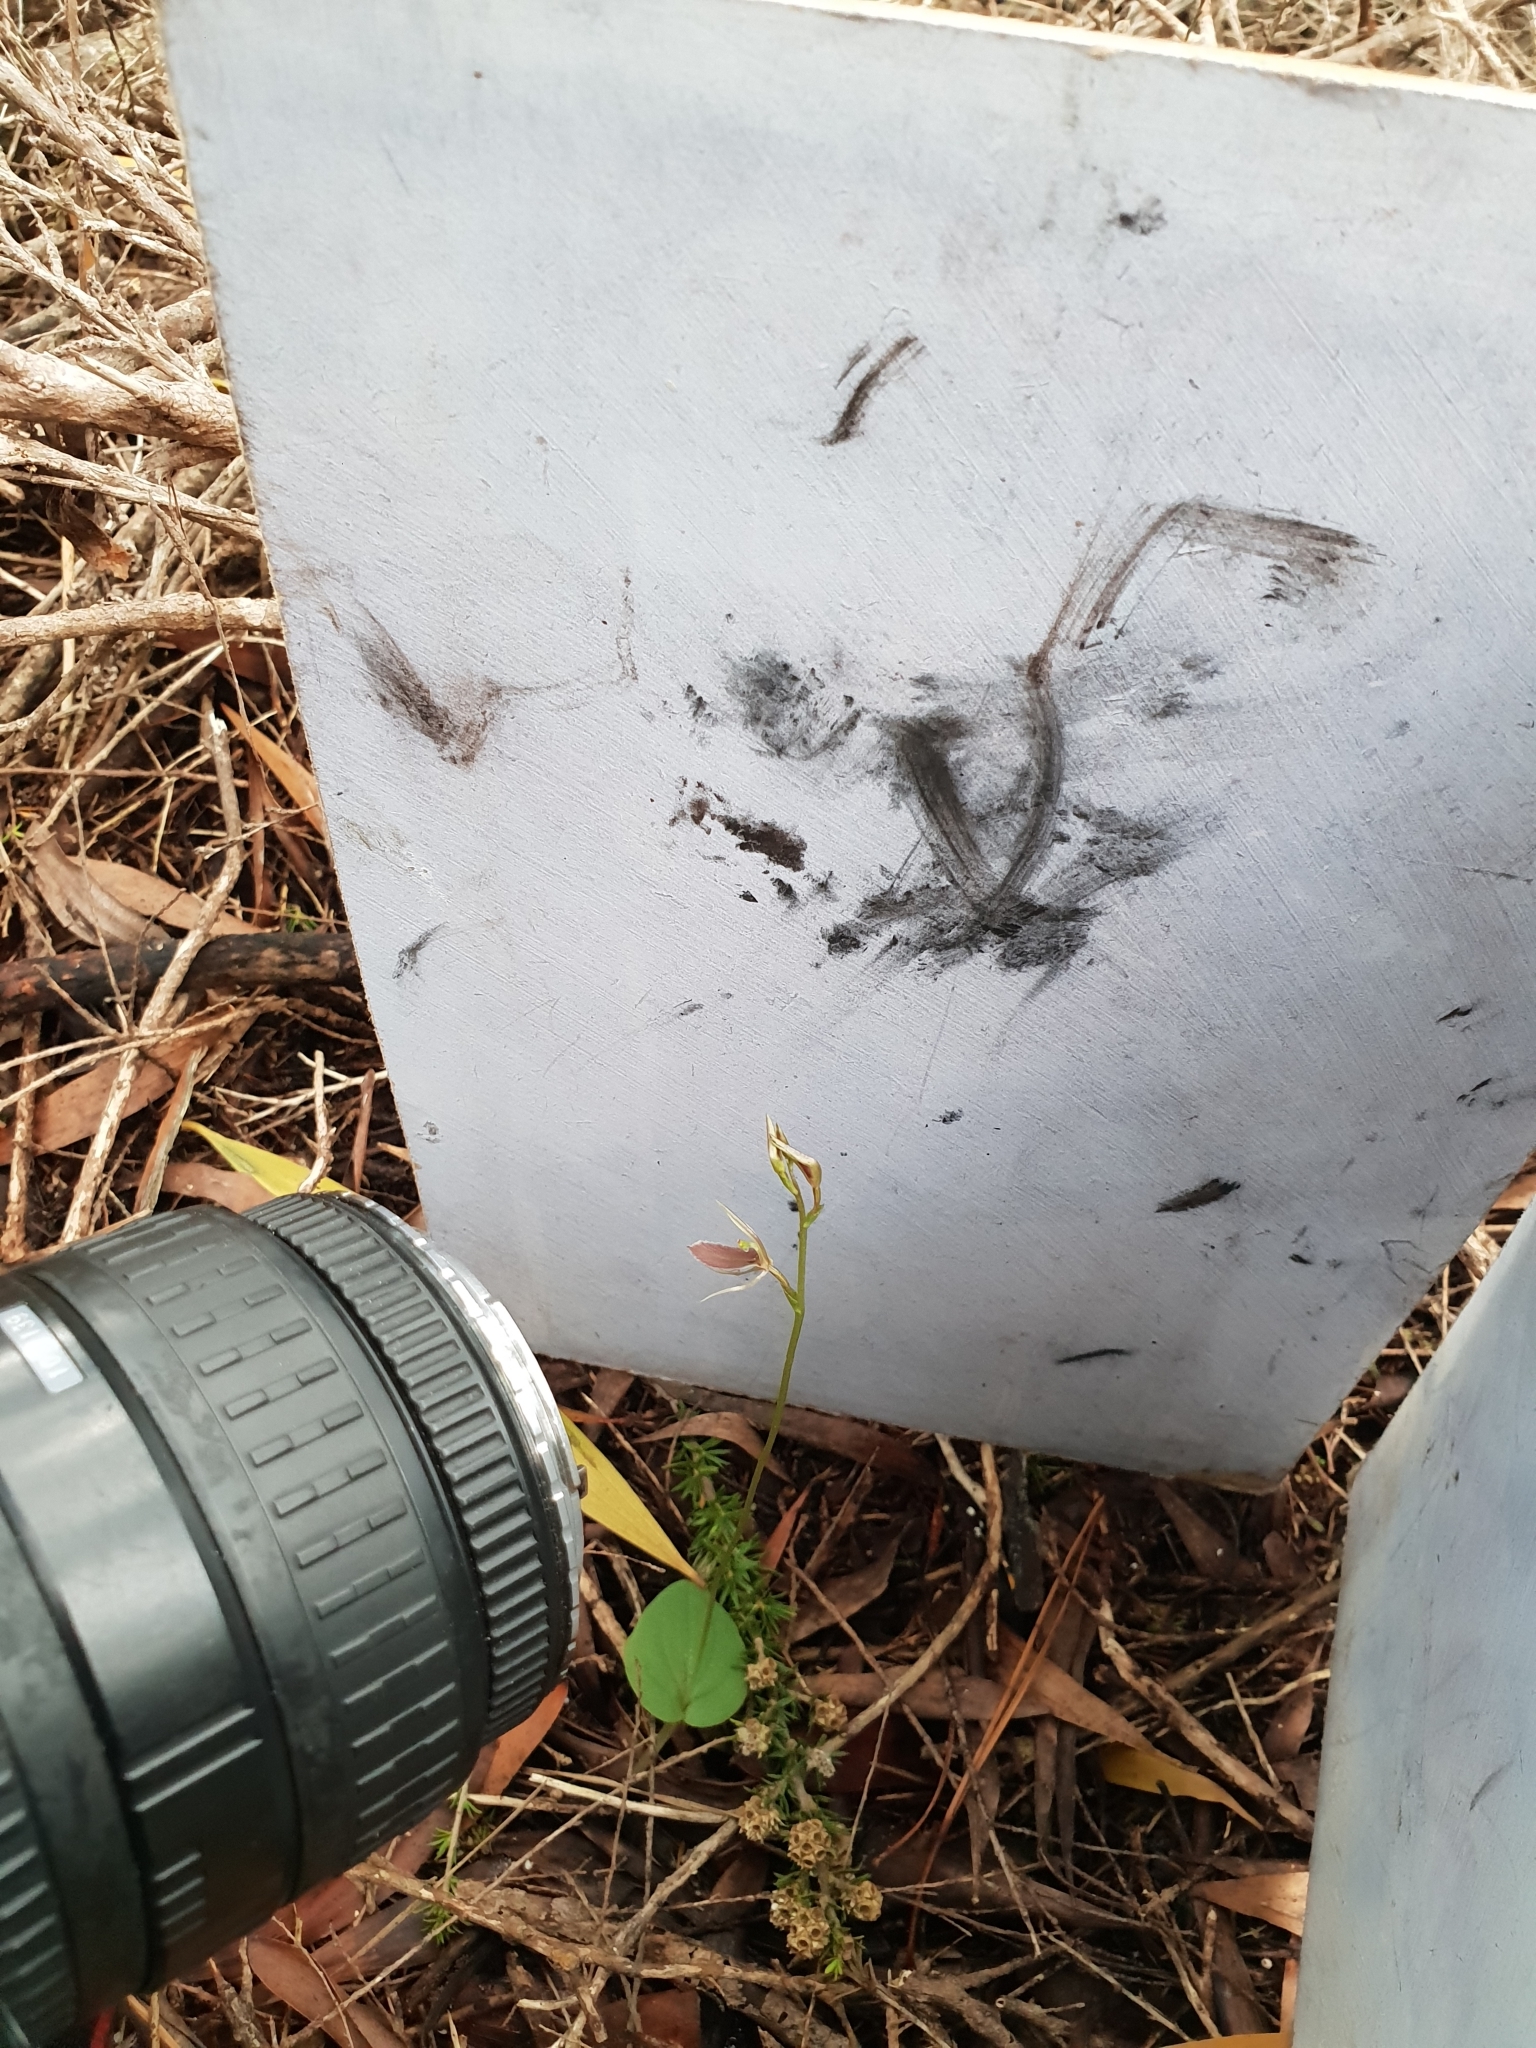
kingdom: Plantae
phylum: Tracheophyta
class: Liliopsida
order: Asparagales
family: Orchidaceae
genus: Cyrtostylis
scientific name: Cyrtostylis robusta
